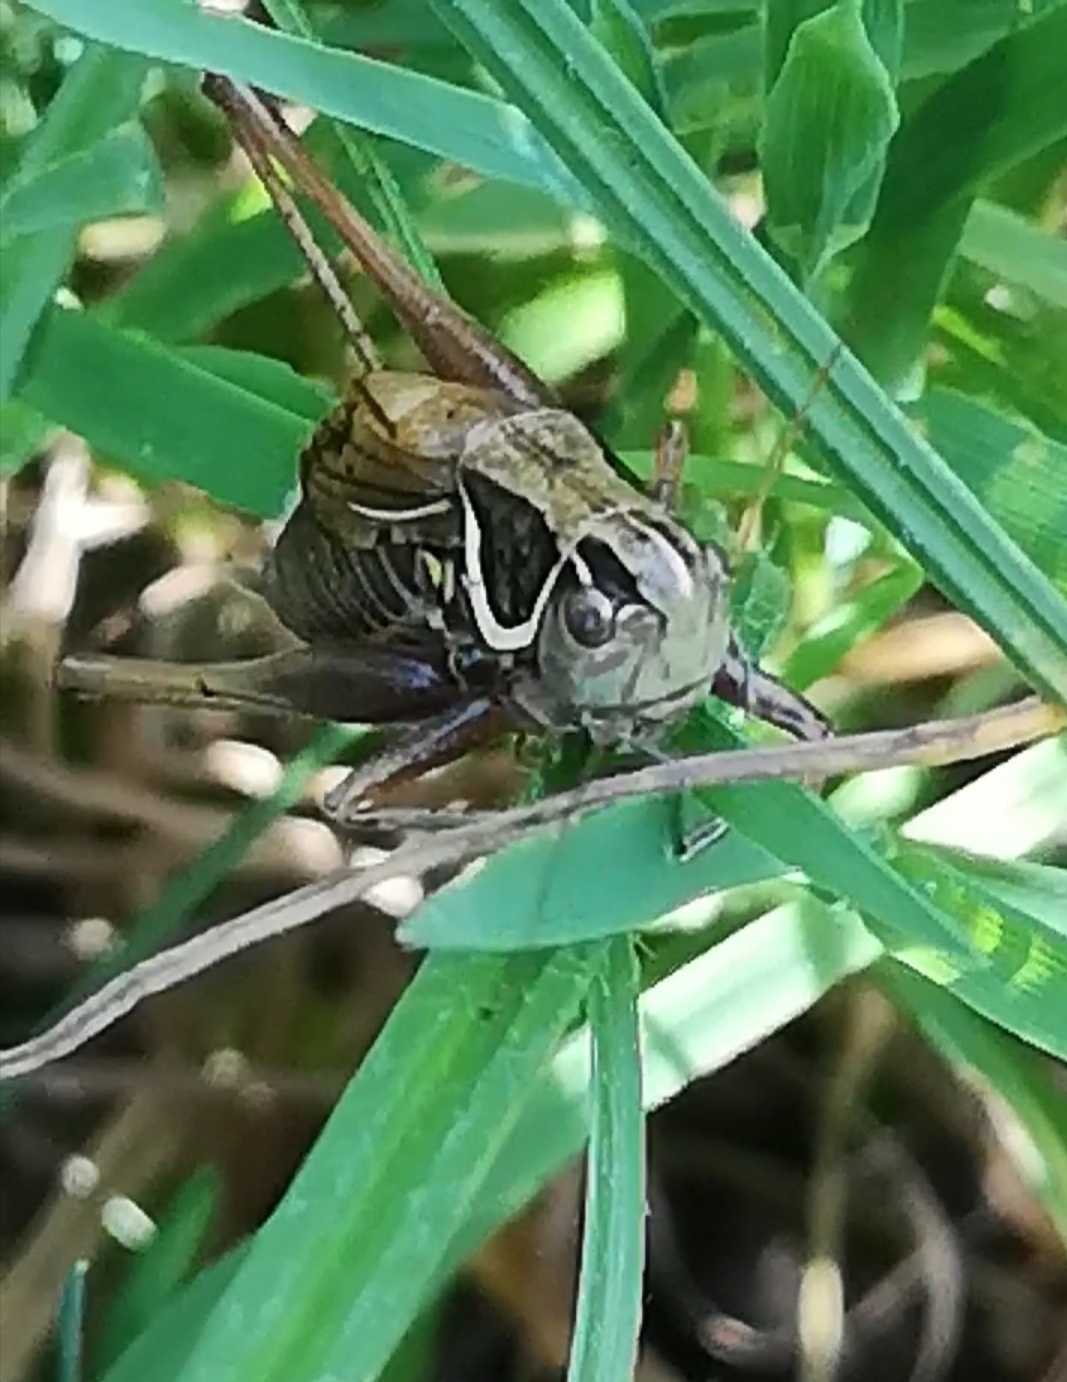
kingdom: Animalia
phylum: Arthropoda
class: Insecta
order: Orthoptera
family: Tettigoniidae
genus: Roeseliana
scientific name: Roeseliana roeselii
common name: Roesel's bush cricket
